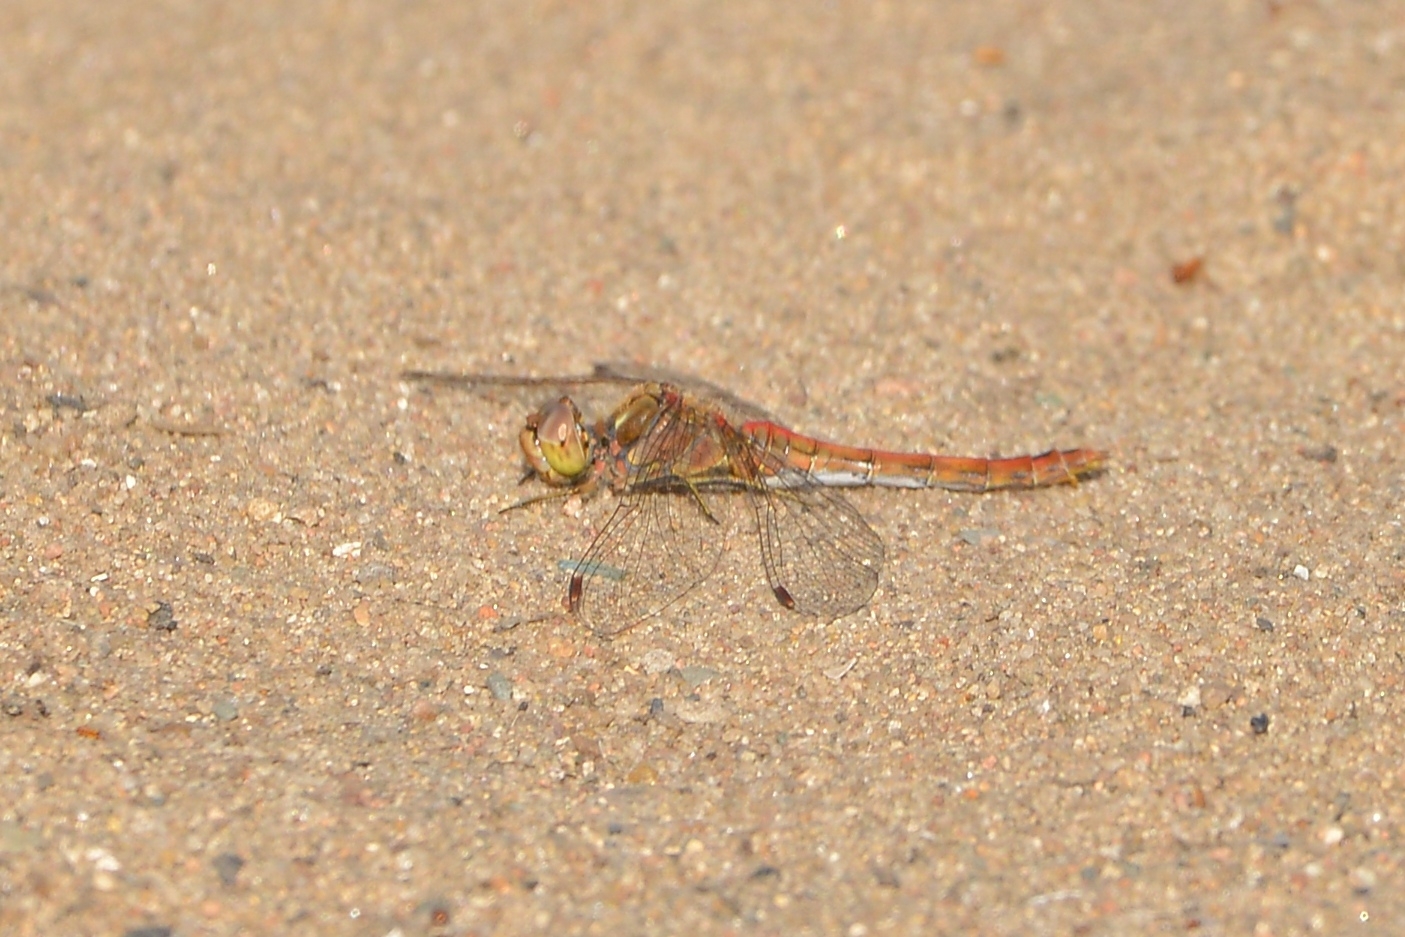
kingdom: Animalia
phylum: Arthropoda
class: Insecta
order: Odonata
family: Libellulidae
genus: Sympetrum
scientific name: Sympetrum vulgatum
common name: Vagrant darter
